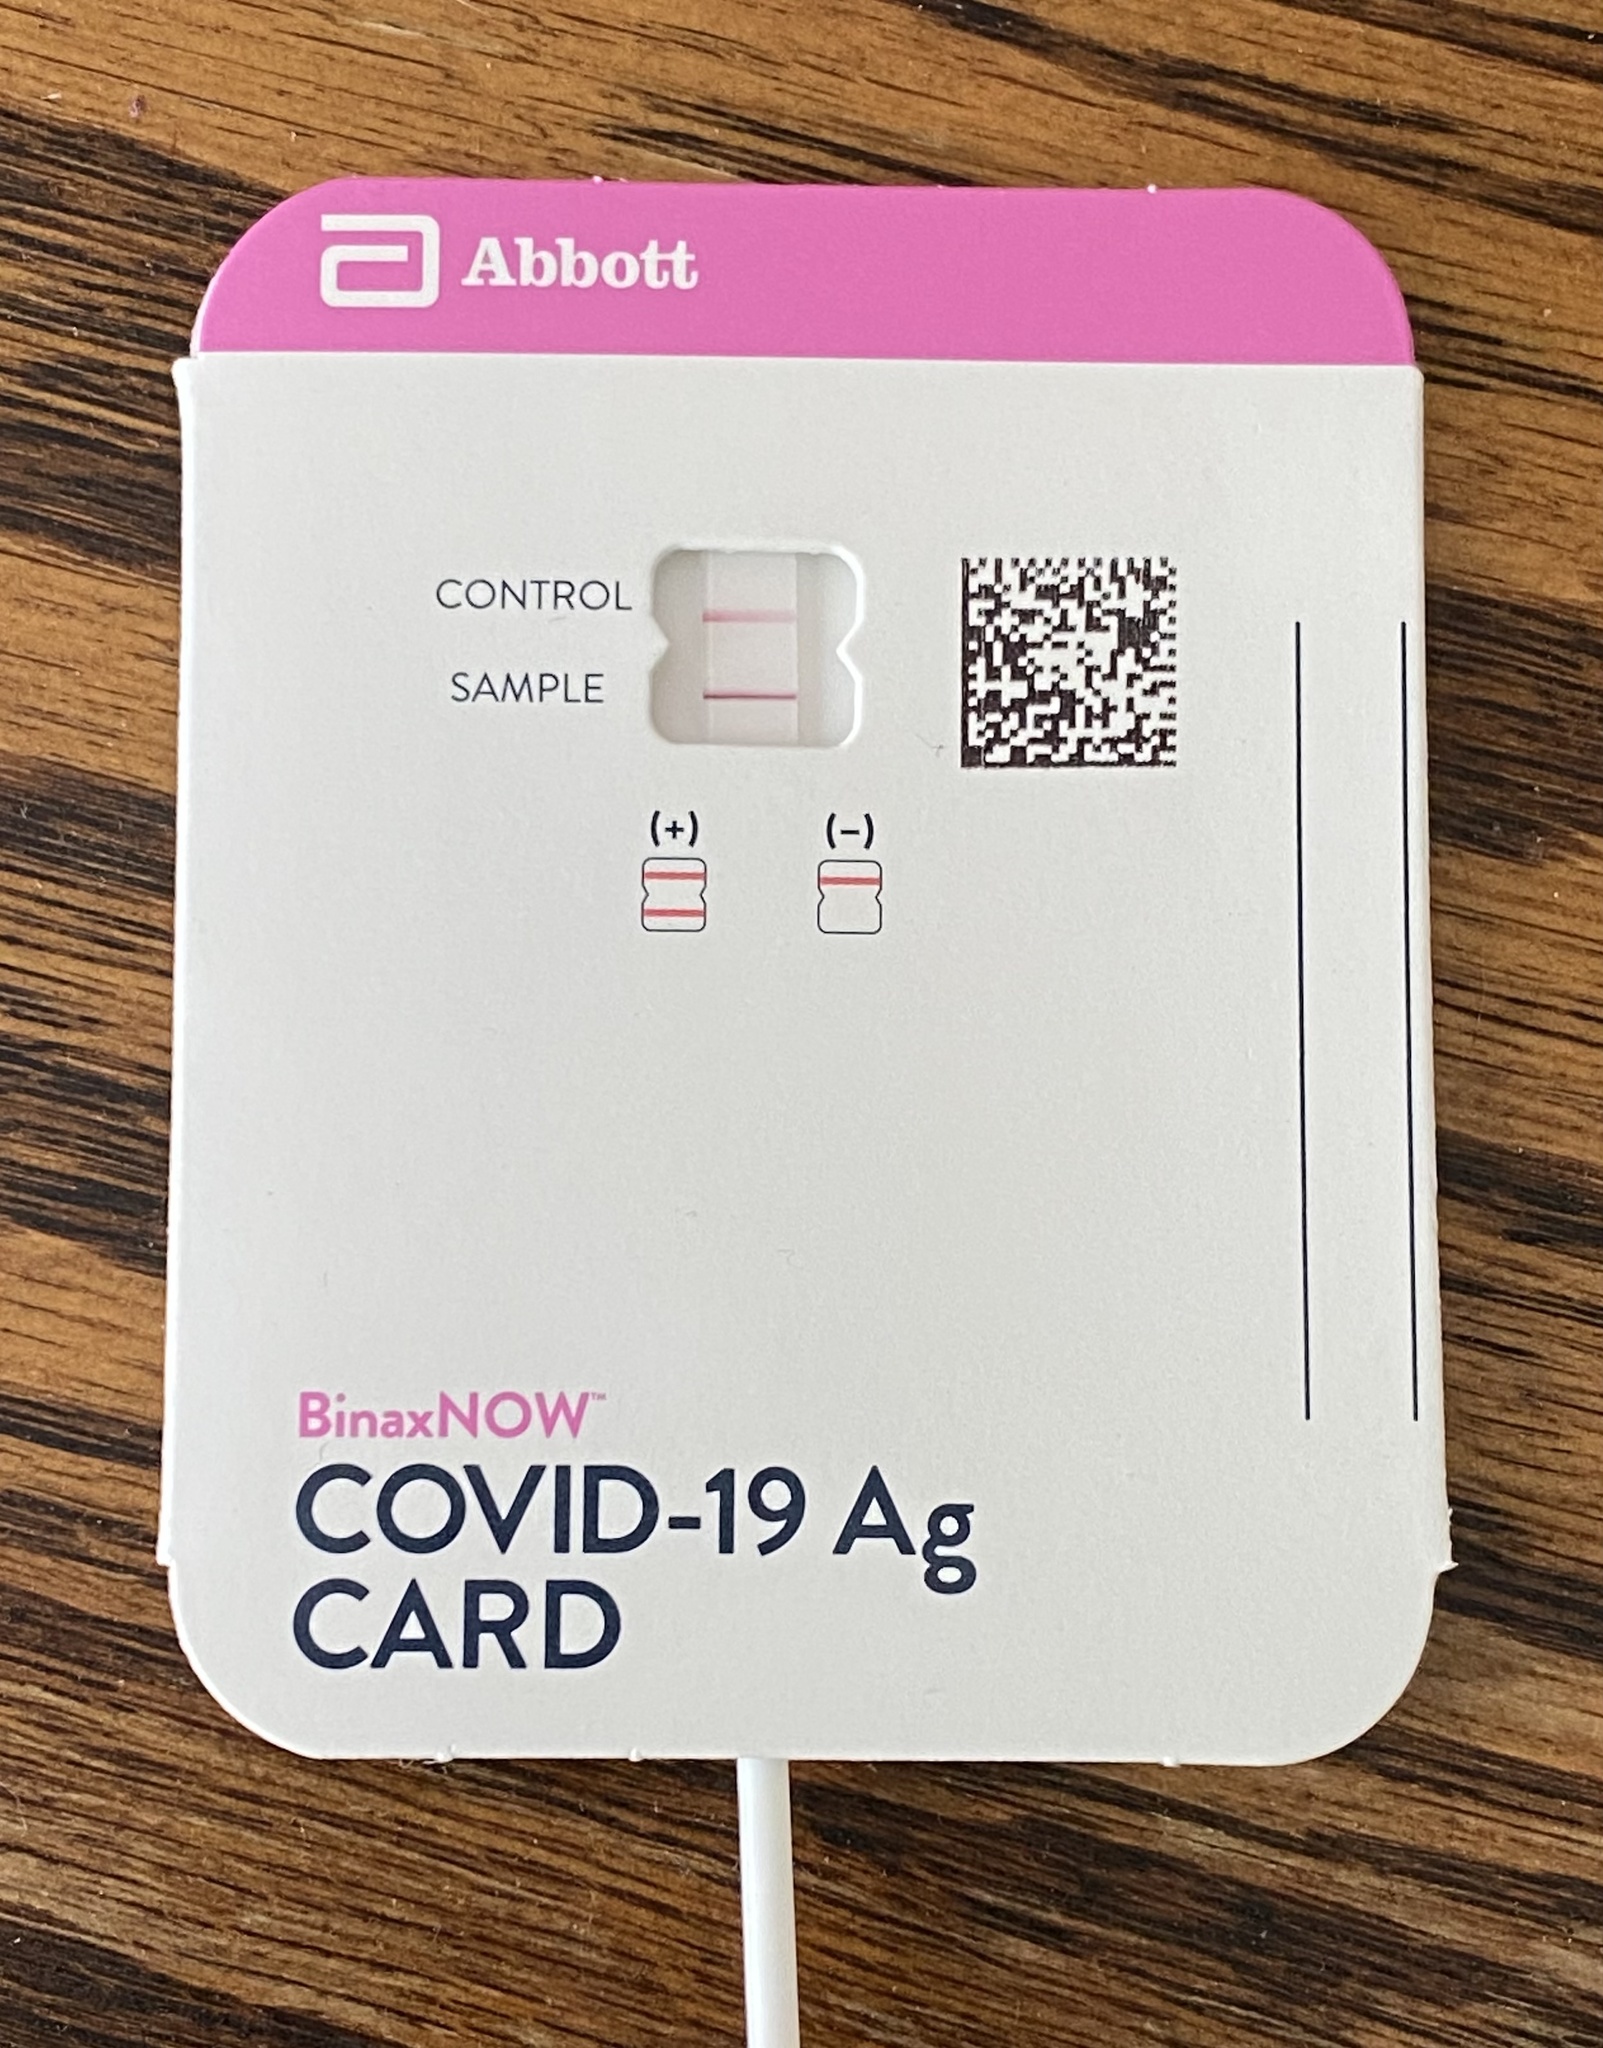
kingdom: Viruses
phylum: Pisuviricota
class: Pisoniviricetes
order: Nidovirales
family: Coronaviridae
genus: Betacoronavirus
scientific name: Betacoronavirus
